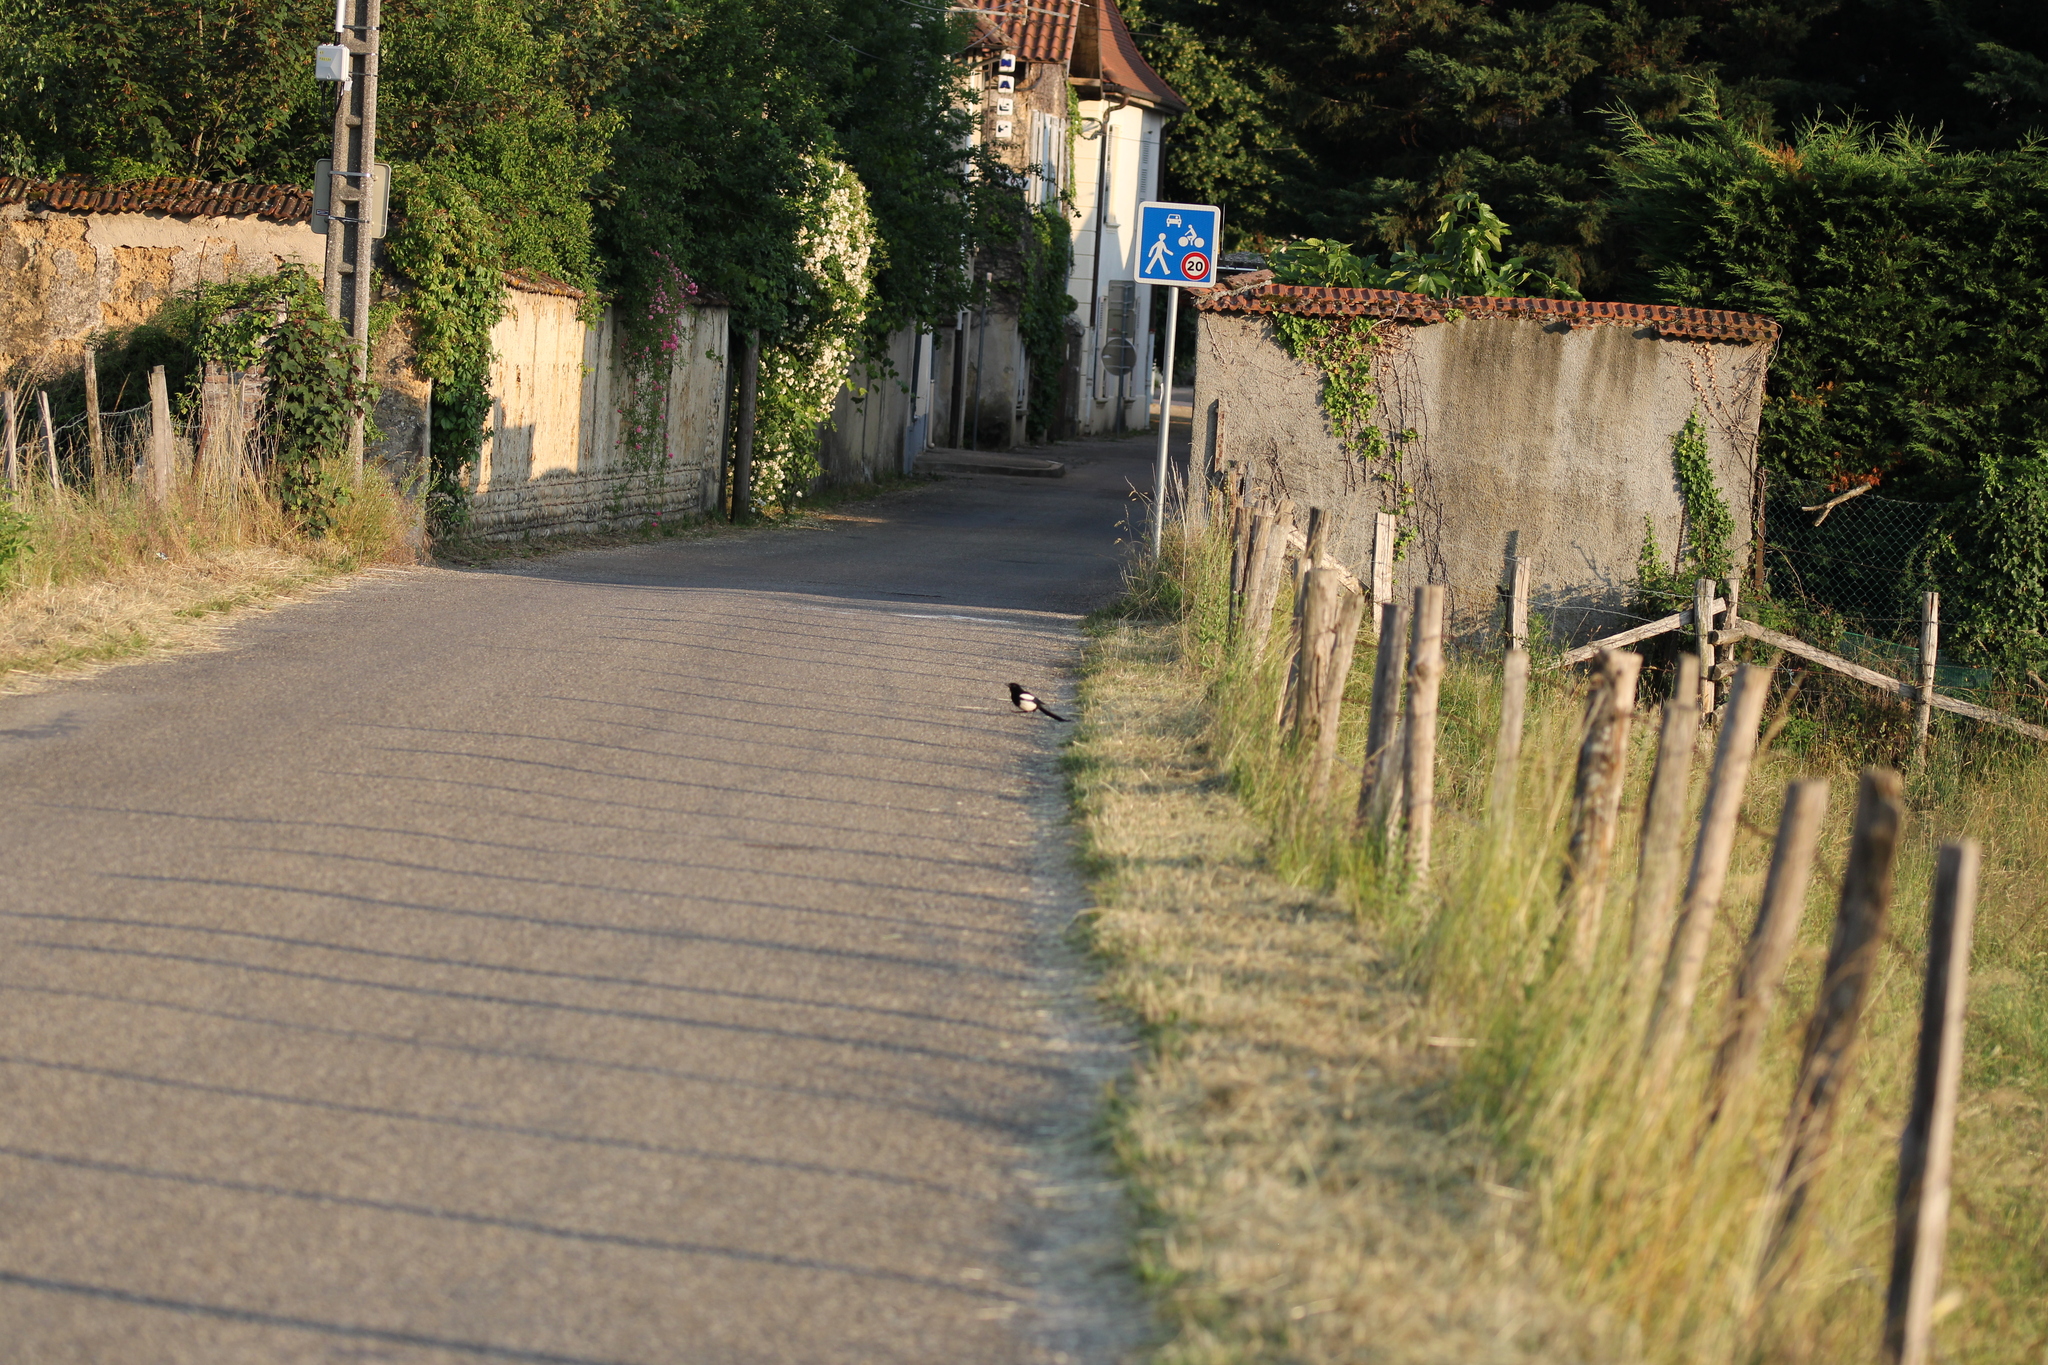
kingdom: Animalia
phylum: Chordata
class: Aves
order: Passeriformes
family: Corvidae
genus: Pica
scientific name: Pica pica
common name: Eurasian magpie
